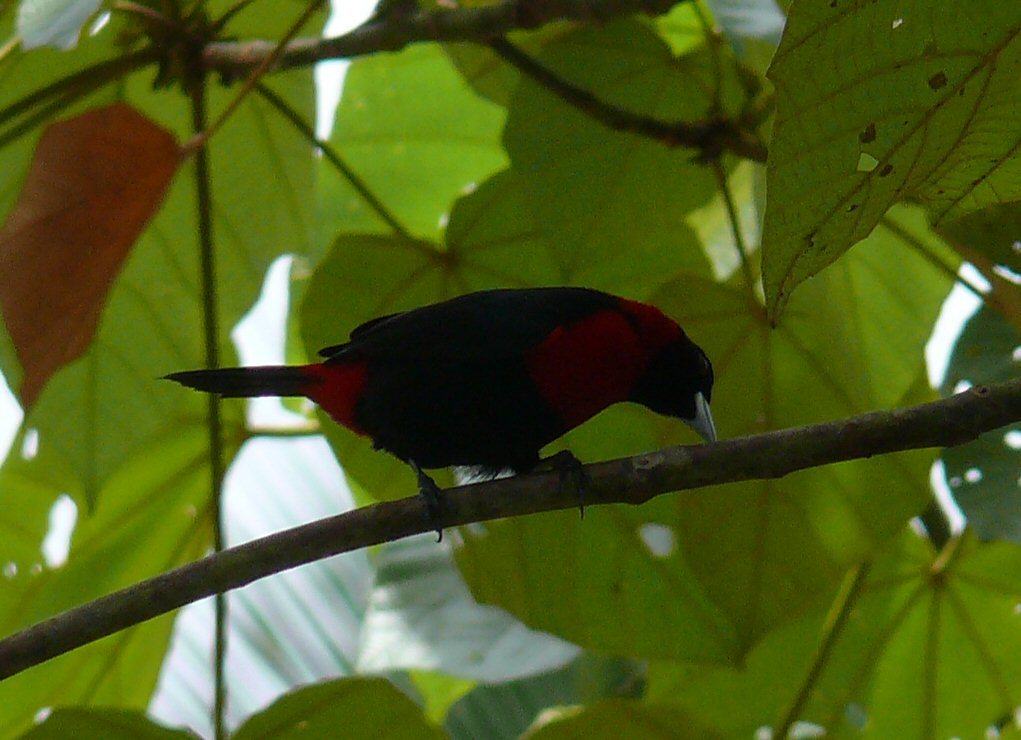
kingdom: Animalia
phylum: Chordata
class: Aves
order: Passeriformes
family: Thraupidae
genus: Ramphocelus
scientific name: Ramphocelus sanguinolentus
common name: Crimson-collared tanager
